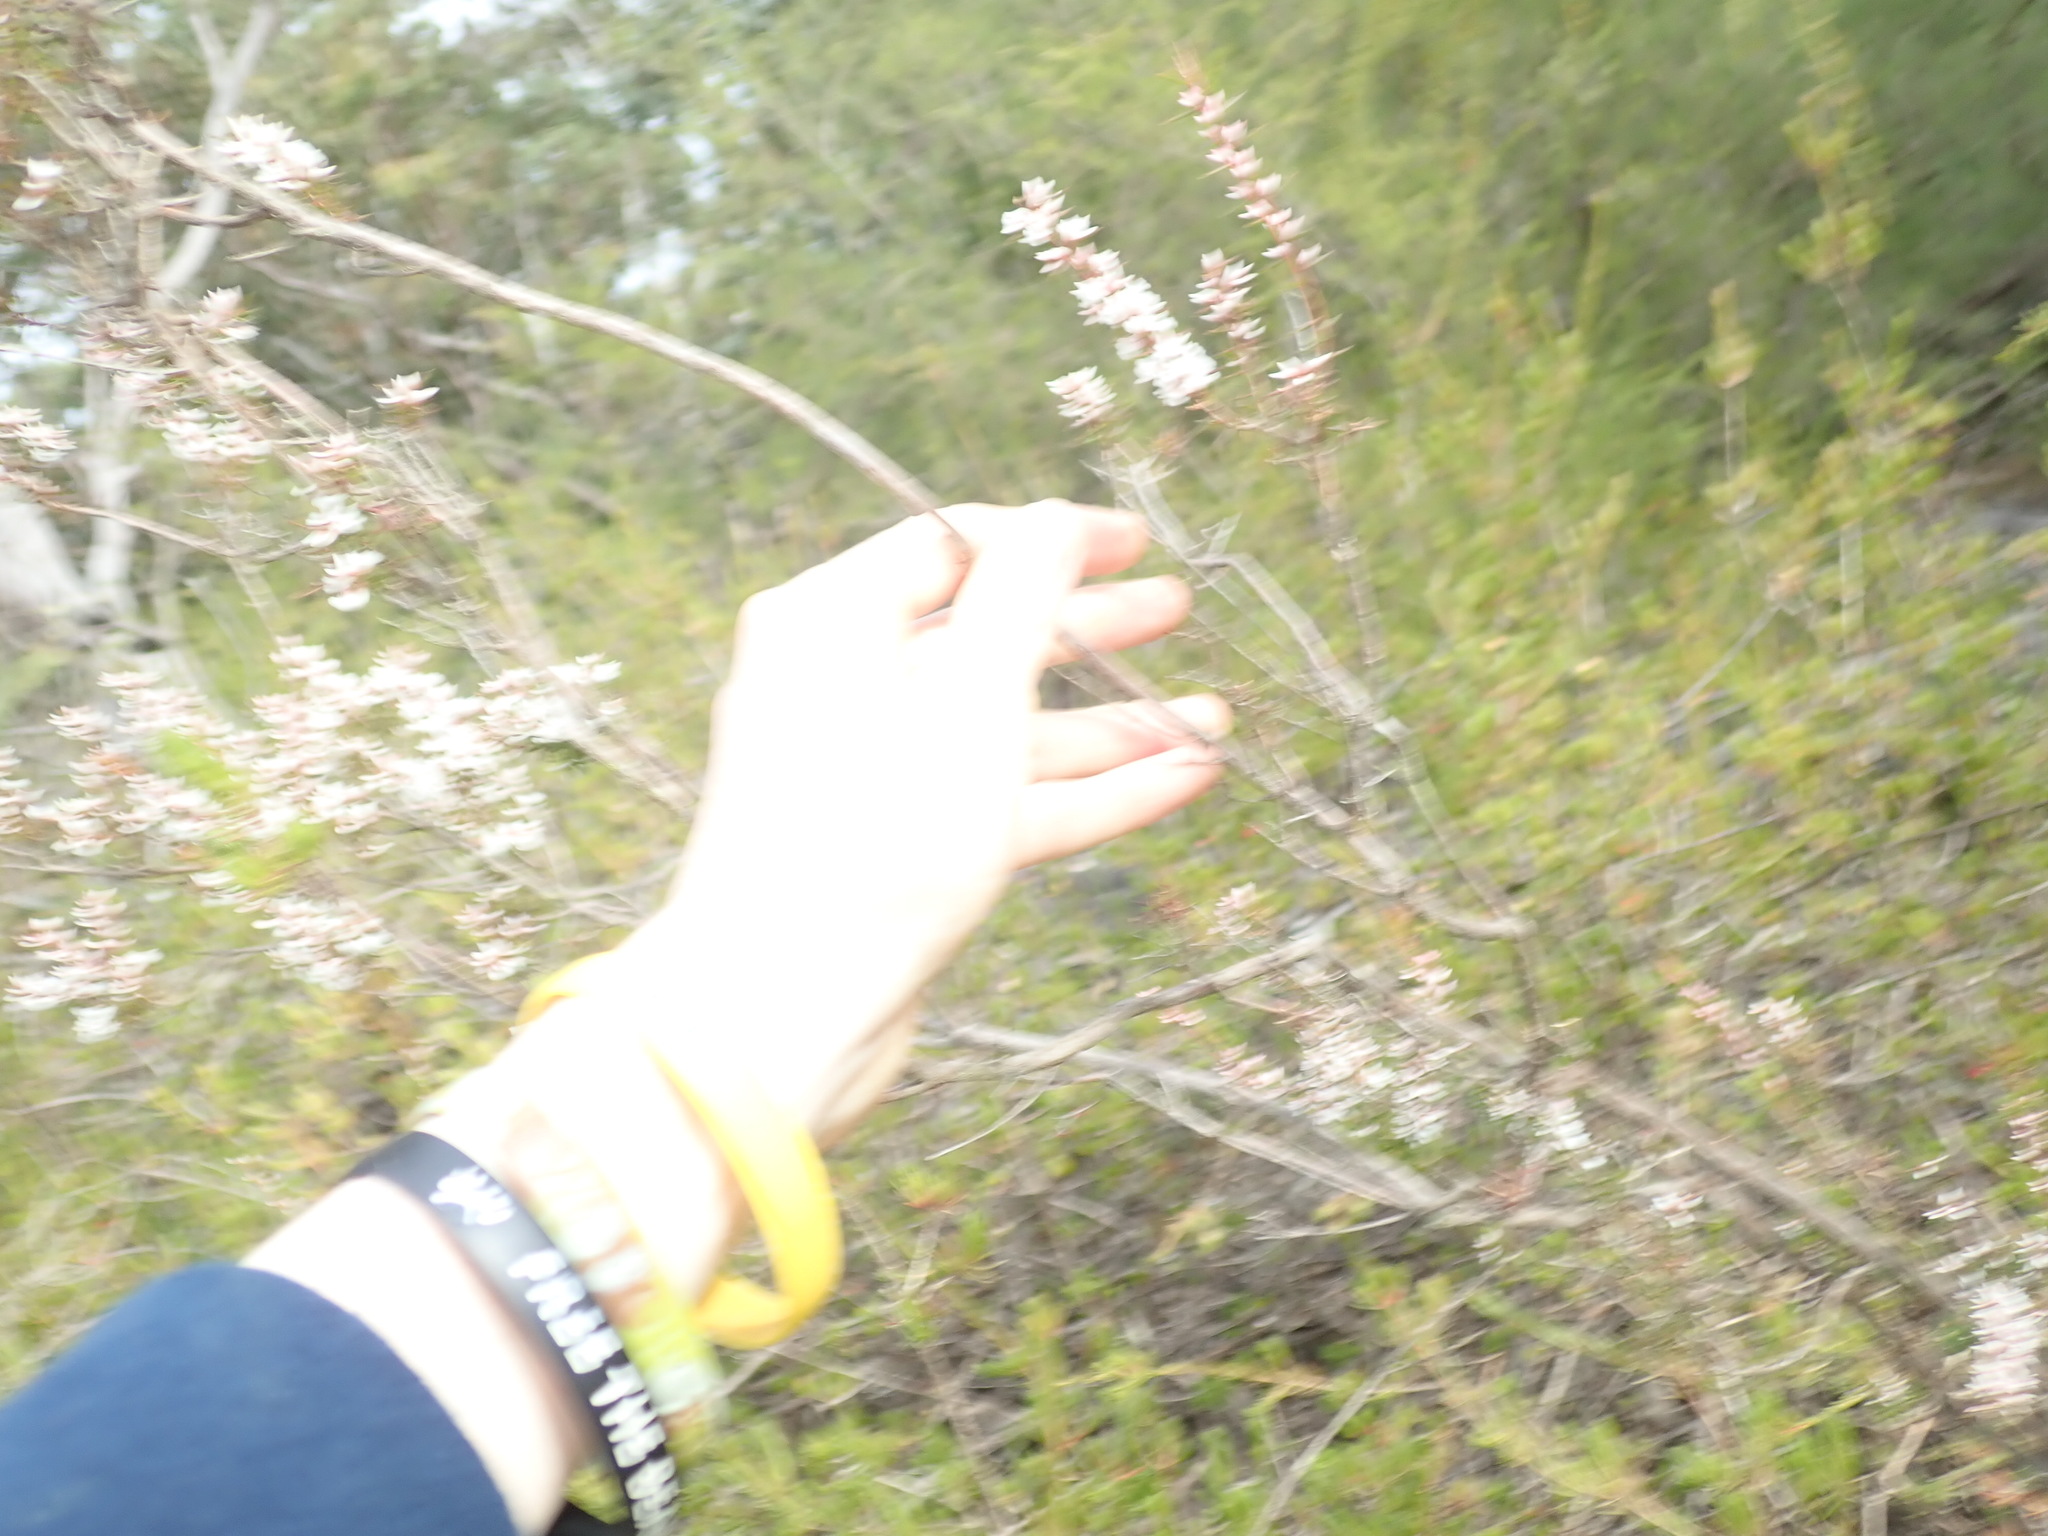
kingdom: Plantae
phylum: Tracheophyta
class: Magnoliopsida
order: Ericales
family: Ericaceae
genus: Styphelia
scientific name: Styphelia ericoides
